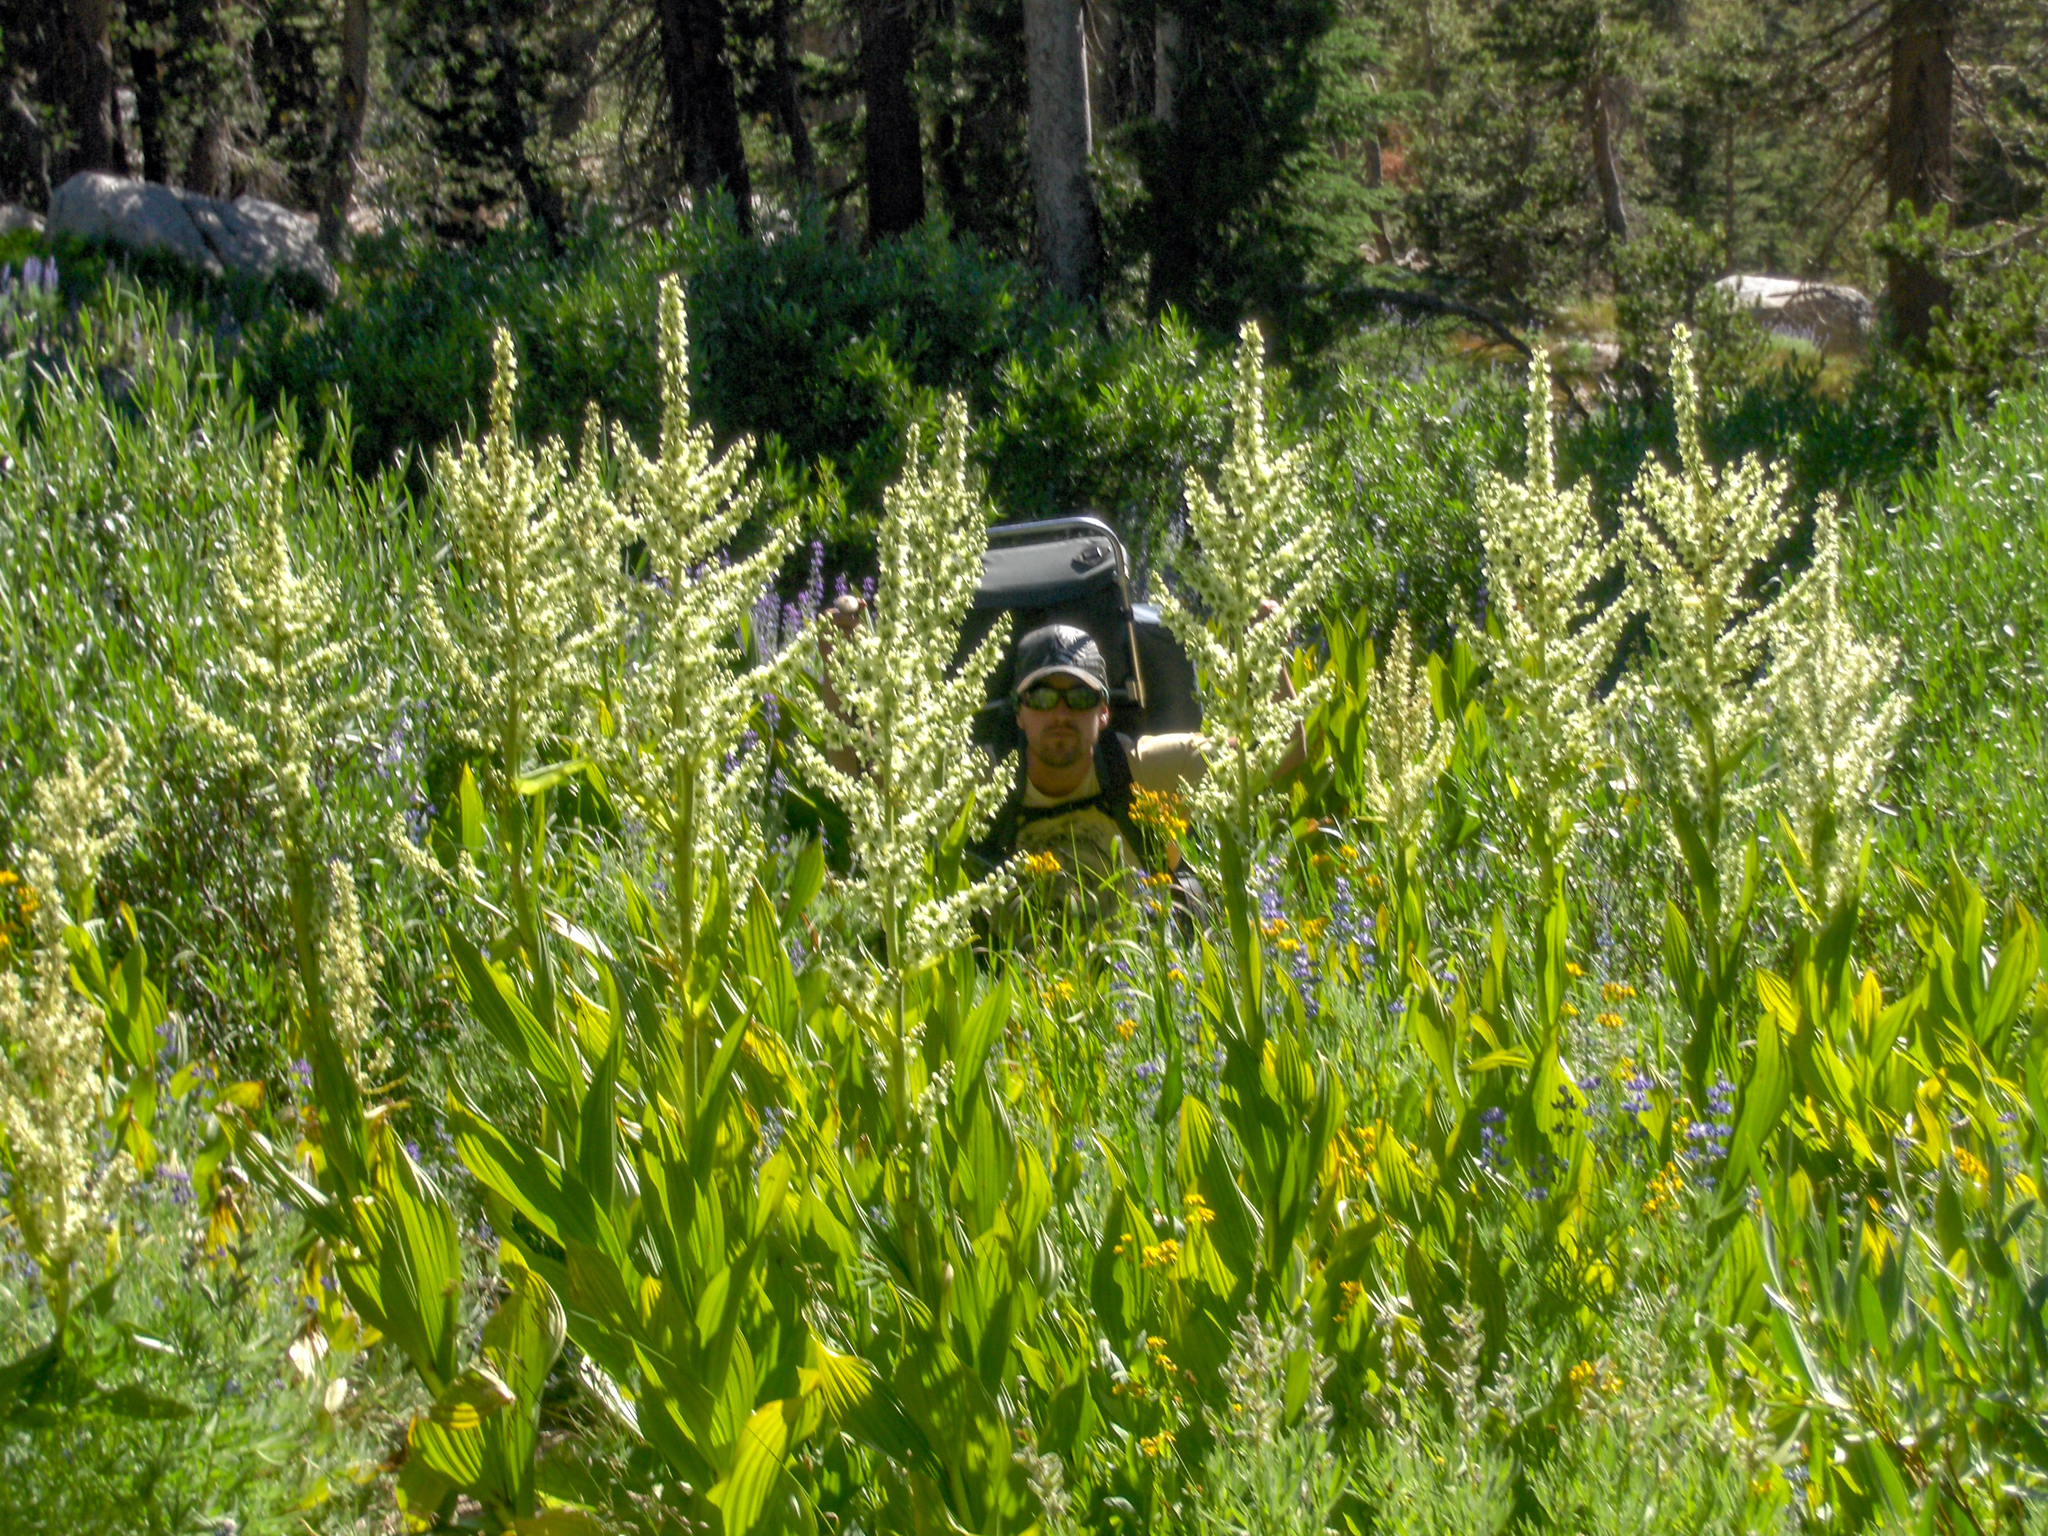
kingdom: Plantae
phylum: Tracheophyta
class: Liliopsida
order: Liliales
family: Melanthiaceae
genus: Veratrum
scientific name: Veratrum californicum
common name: California veratrum
